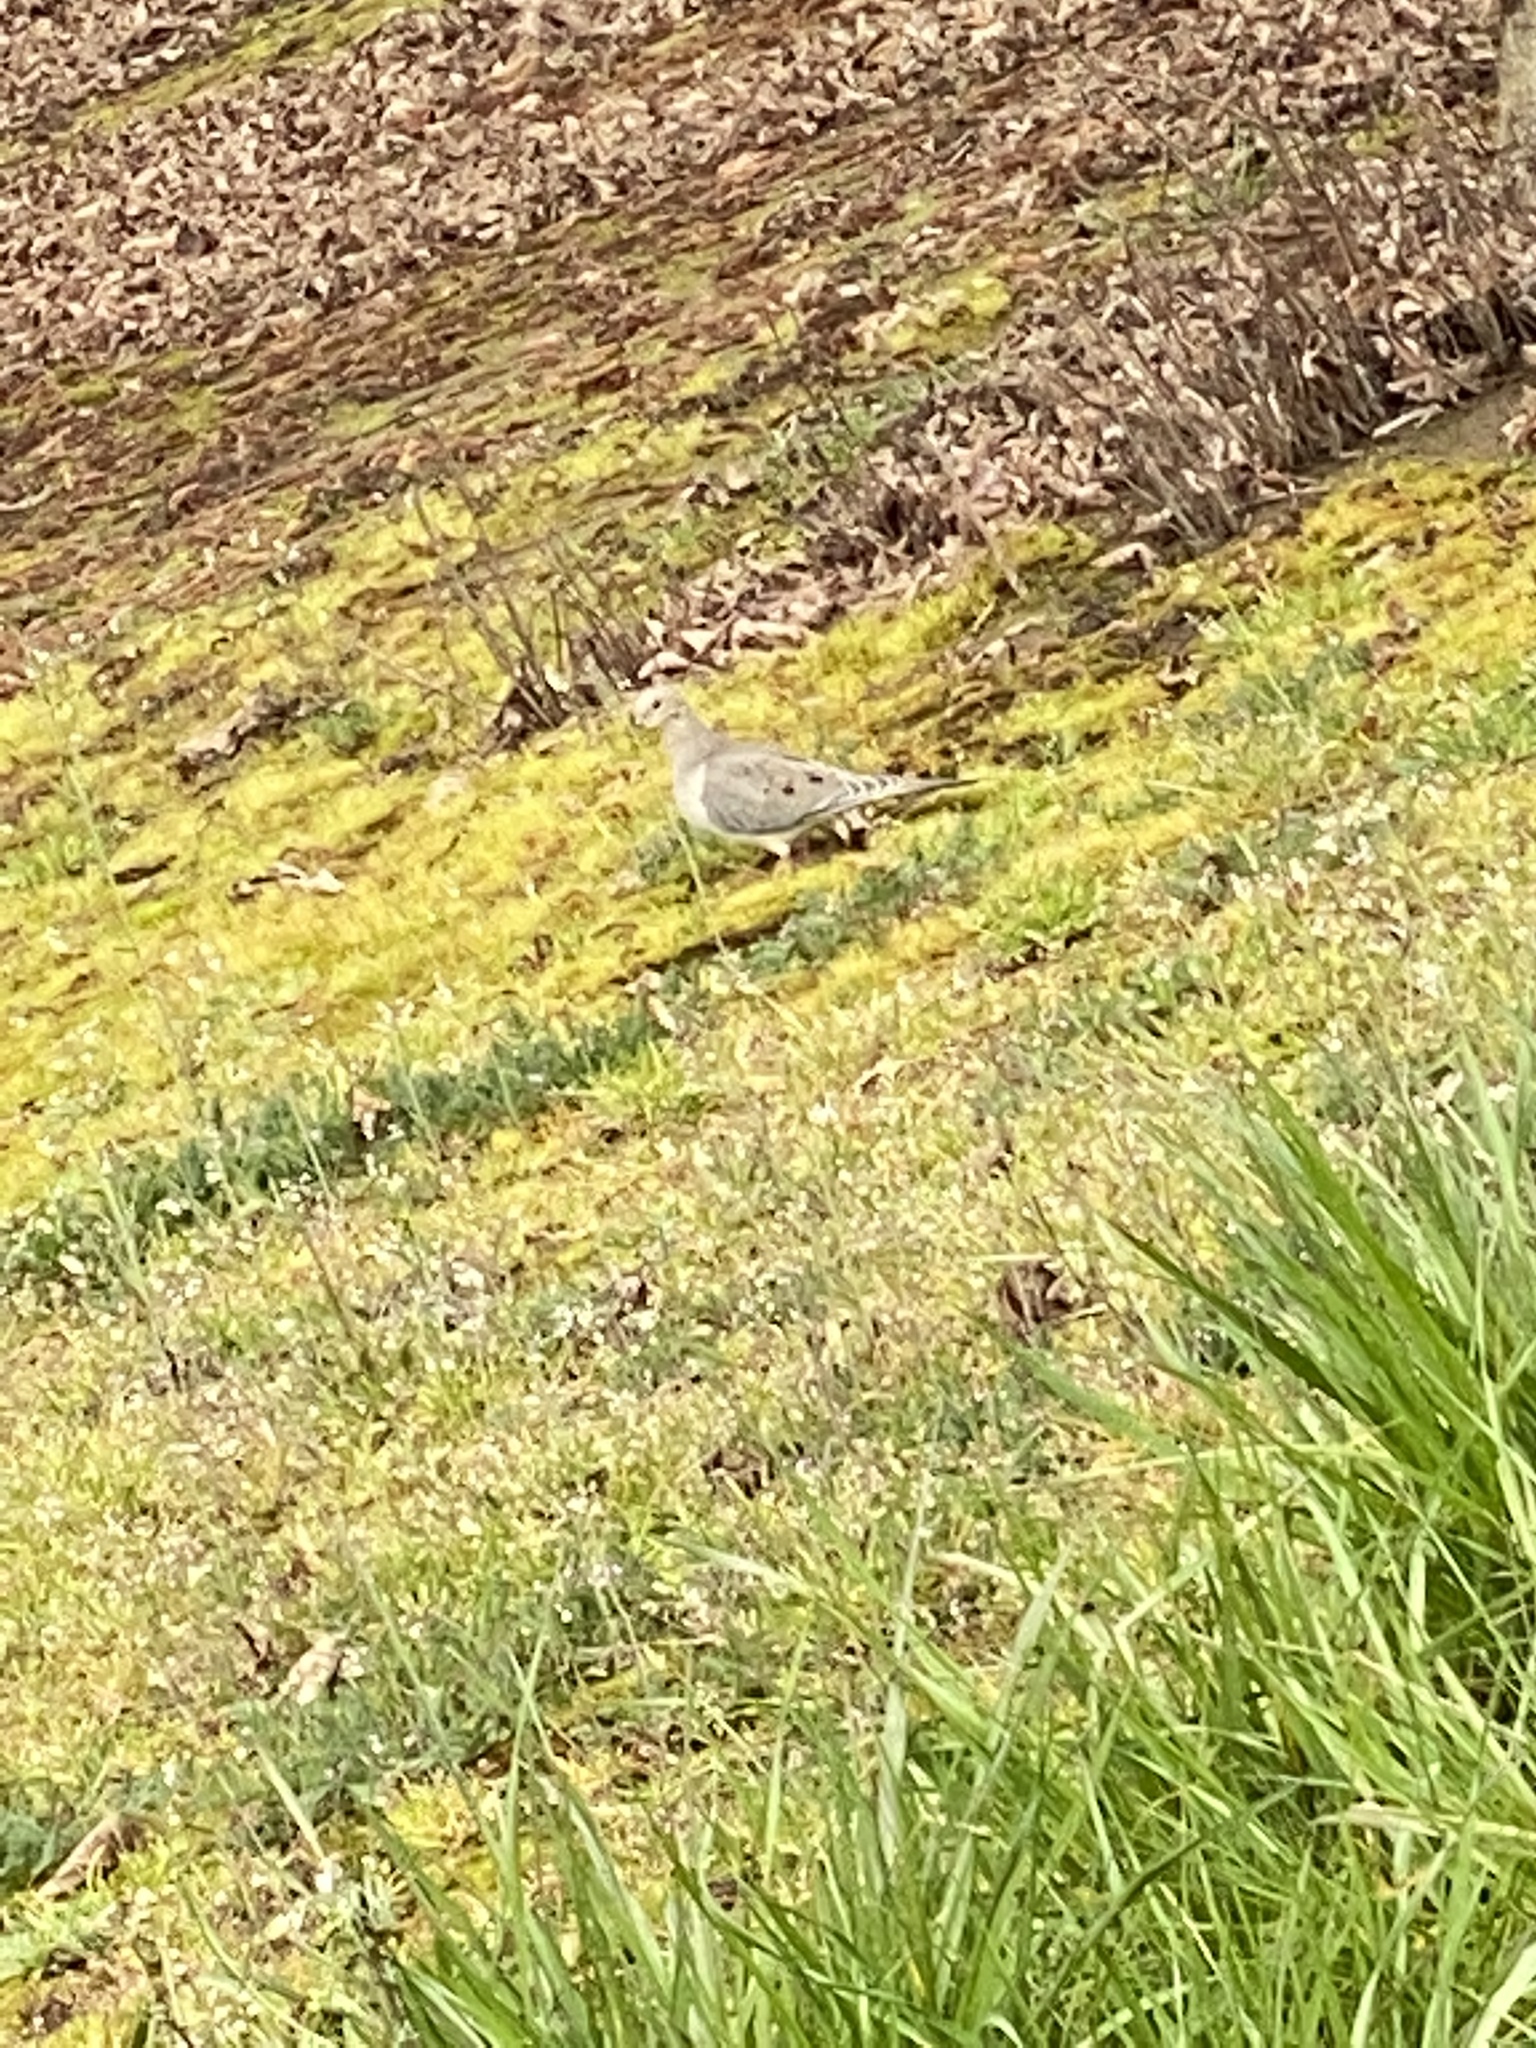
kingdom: Animalia
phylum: Chordata
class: Aves
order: Columbiformes
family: Columbidae
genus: Zenaida
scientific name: Zenaida macroura
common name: Mourning dove
